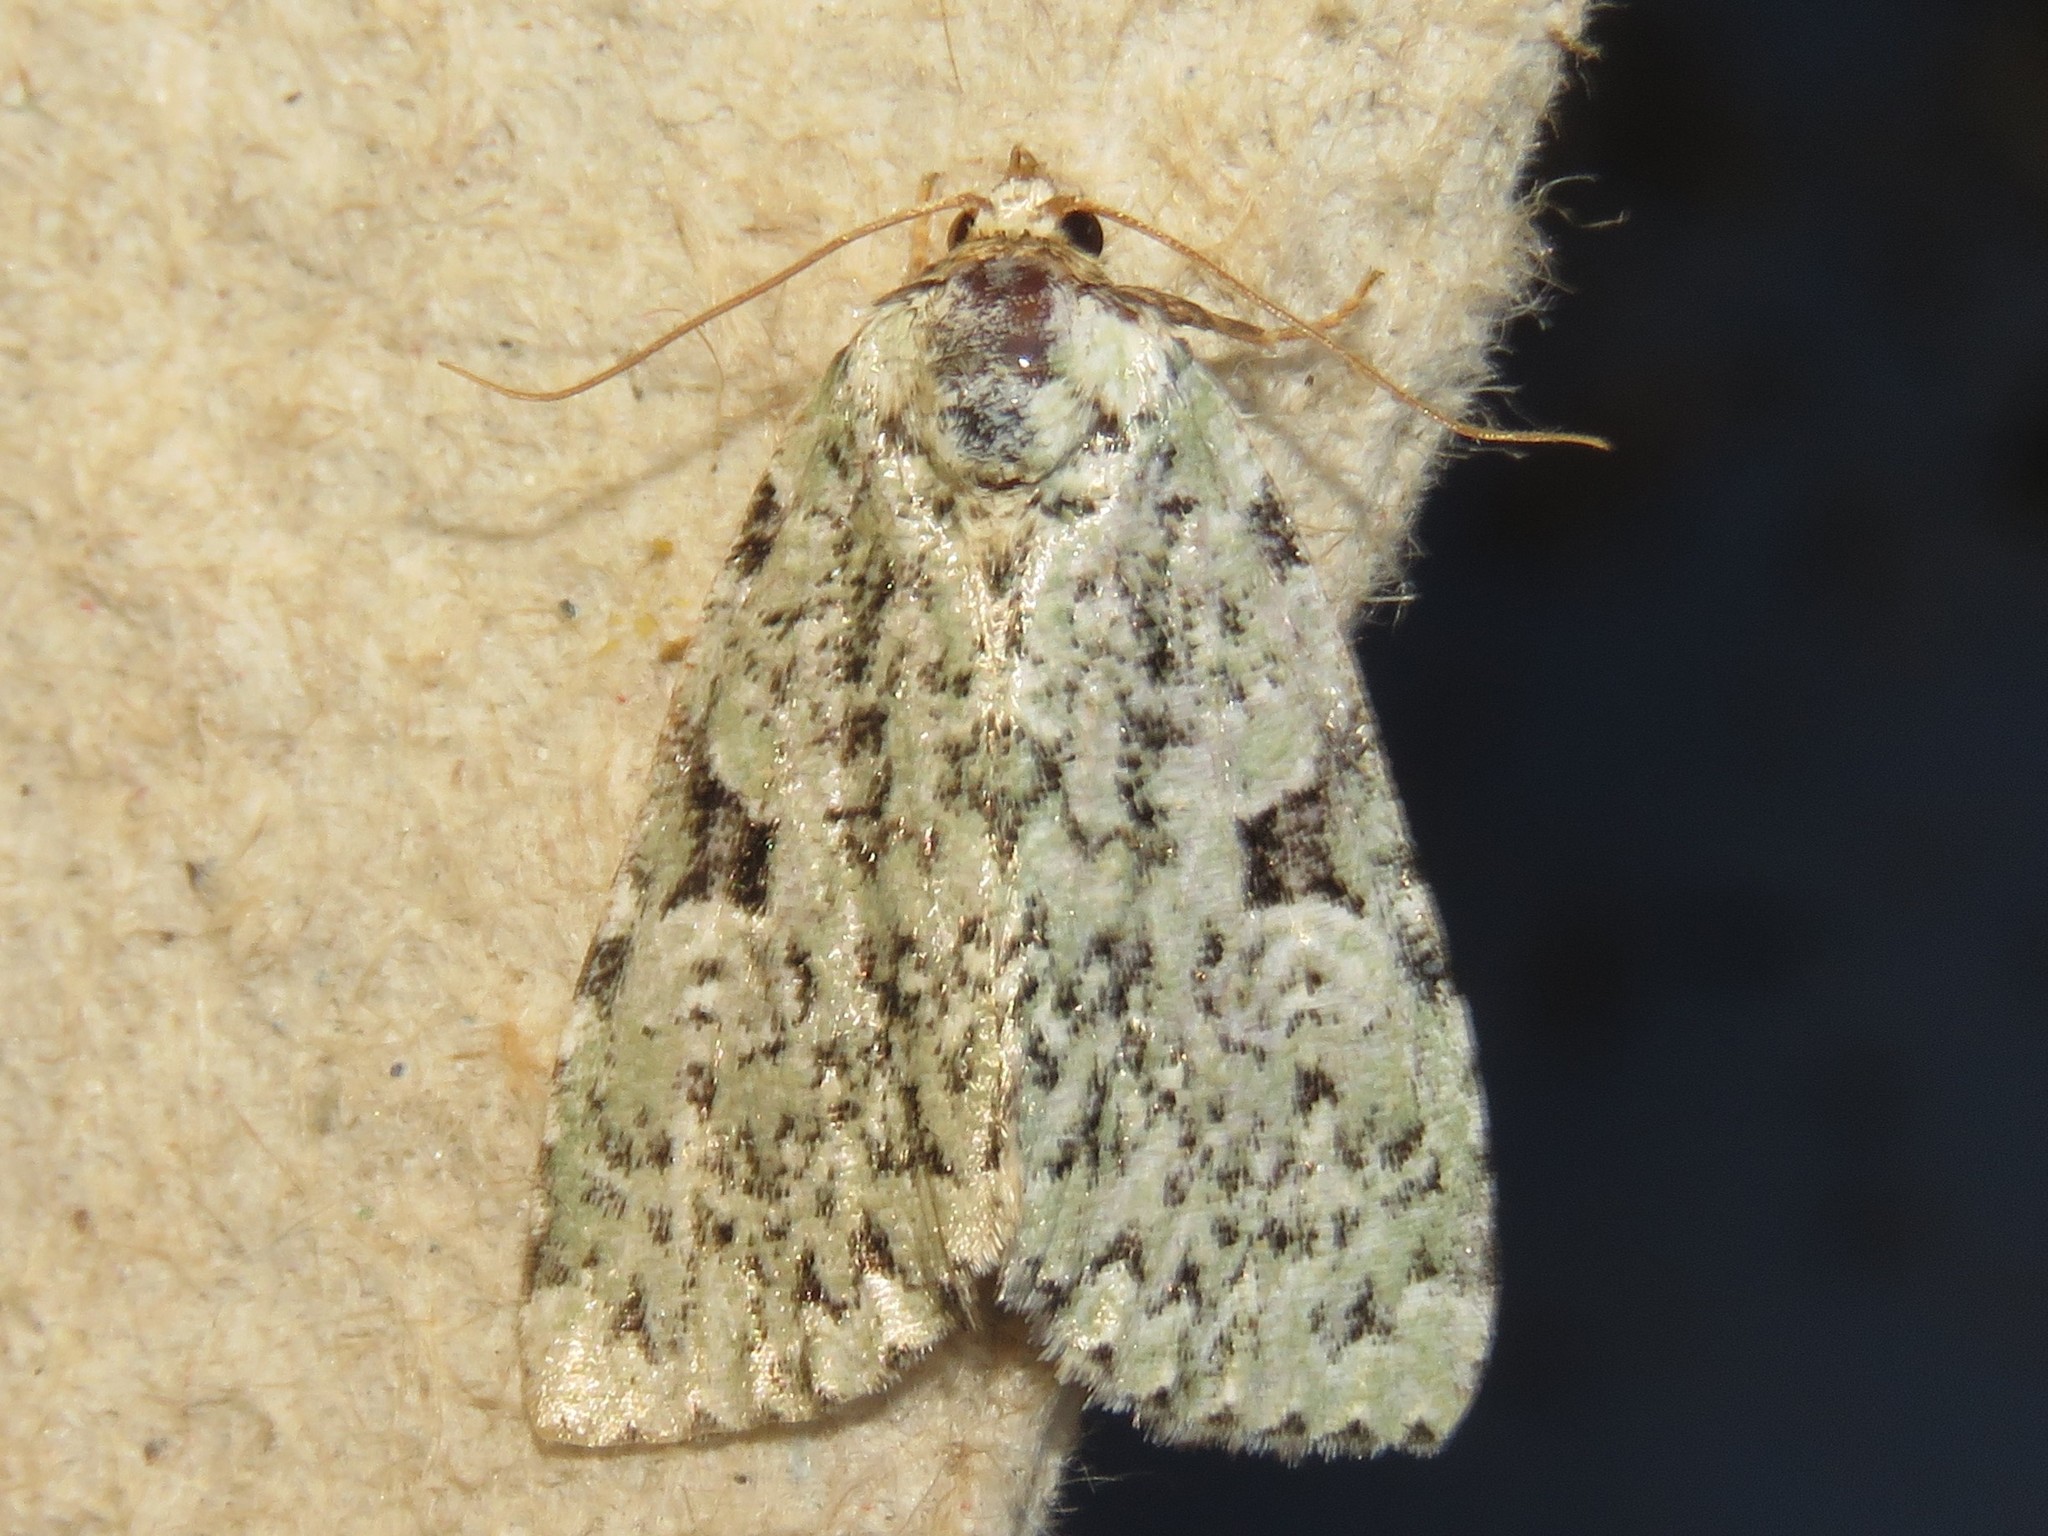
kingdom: Animalia
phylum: Arthropoda
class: Insecta
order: Lepidoptera
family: Noctuidae
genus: Leuconycta
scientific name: Leuconycta diphteroides
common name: Green leuconycta moth
